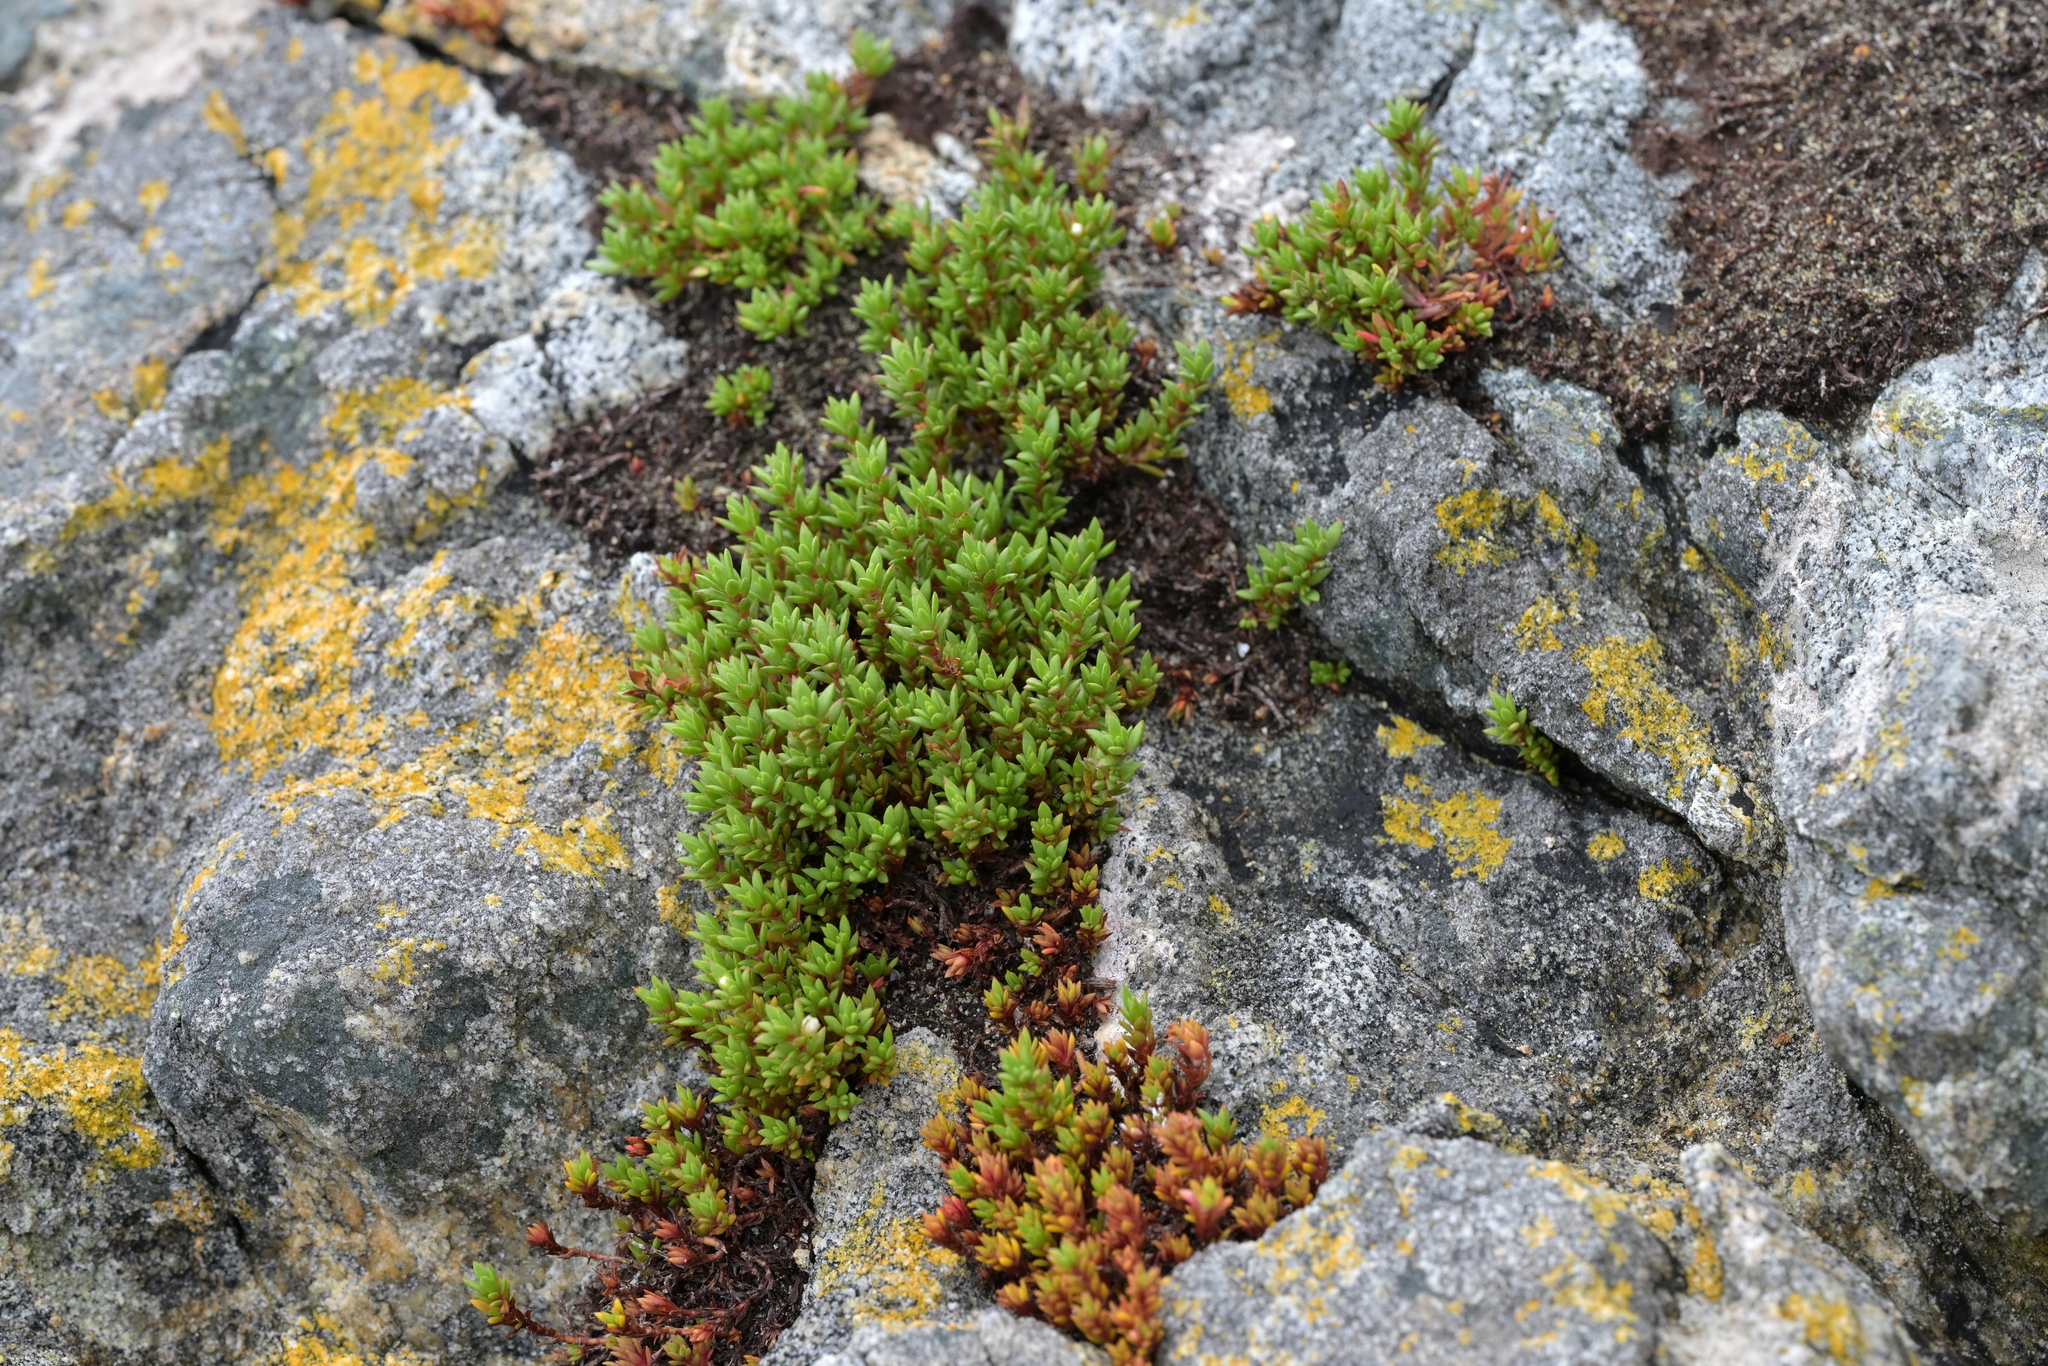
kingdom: Plantae
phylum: Tracheophyta
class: Magnoliopsida
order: Saxifragales
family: Crassulaceae
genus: Crassula
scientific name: Crassula moschata
